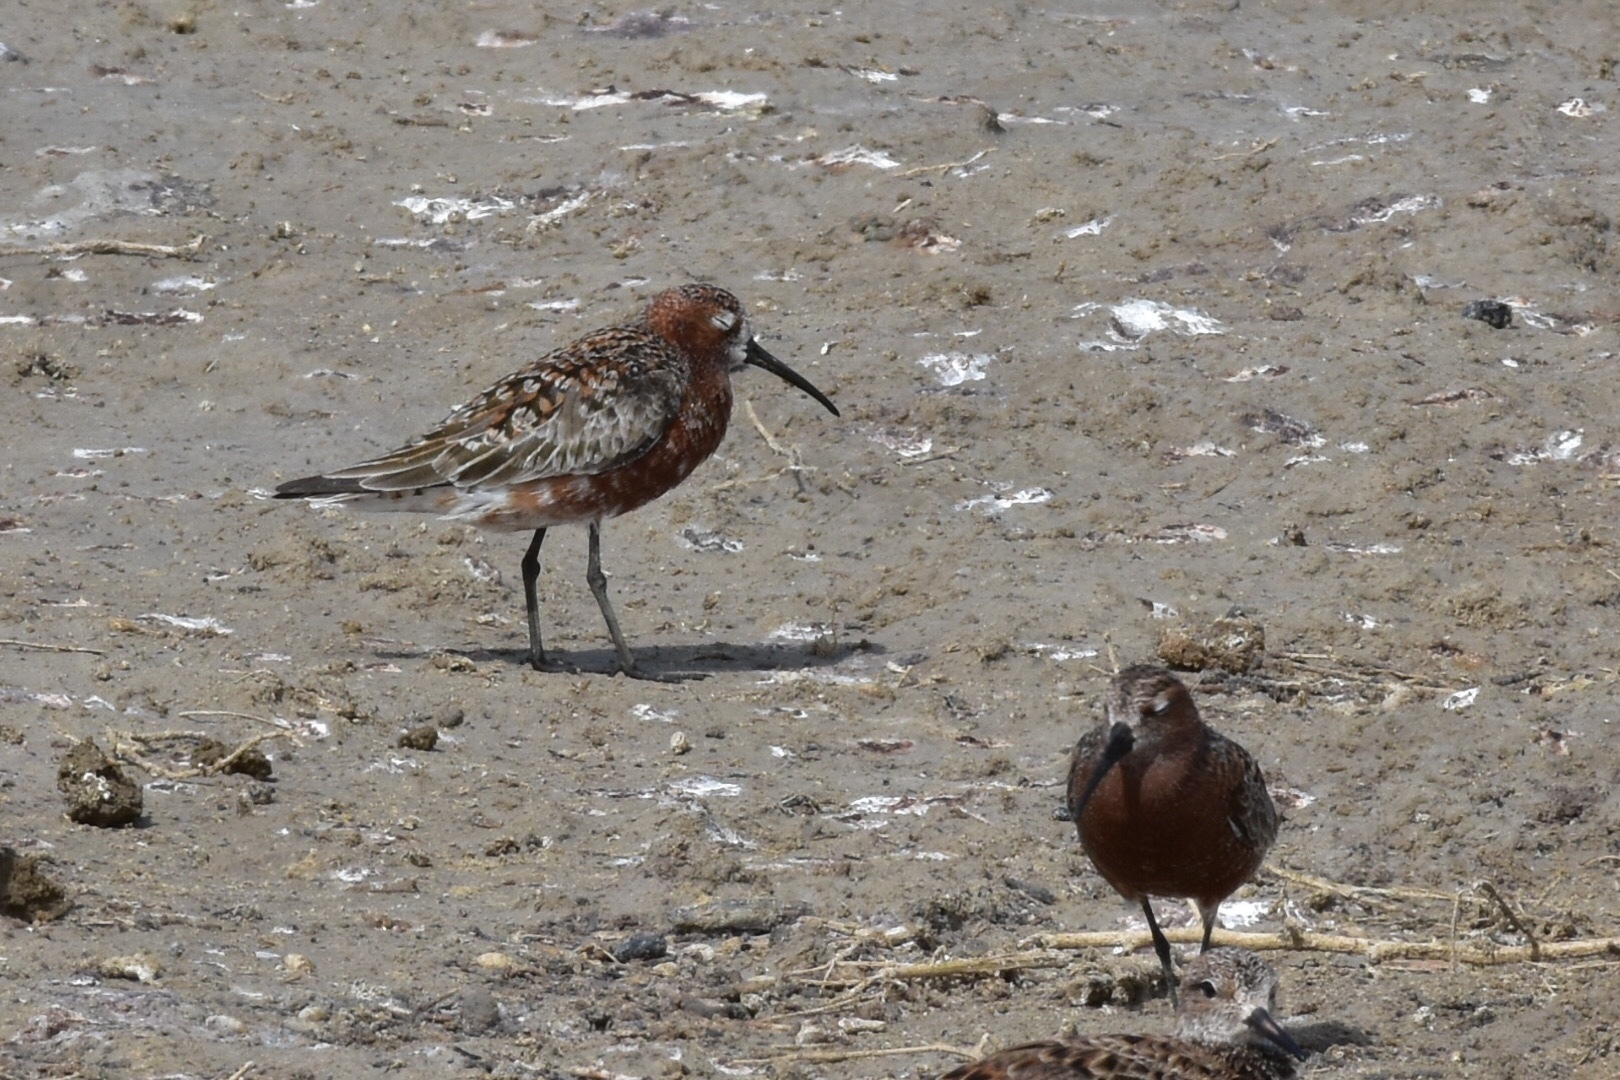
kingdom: Animalia
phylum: Chordata
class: Aves
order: Charadriiformes
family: Scolopacidae
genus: Calidris
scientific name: Calidris ferruginea
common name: Curlew sandpiper
